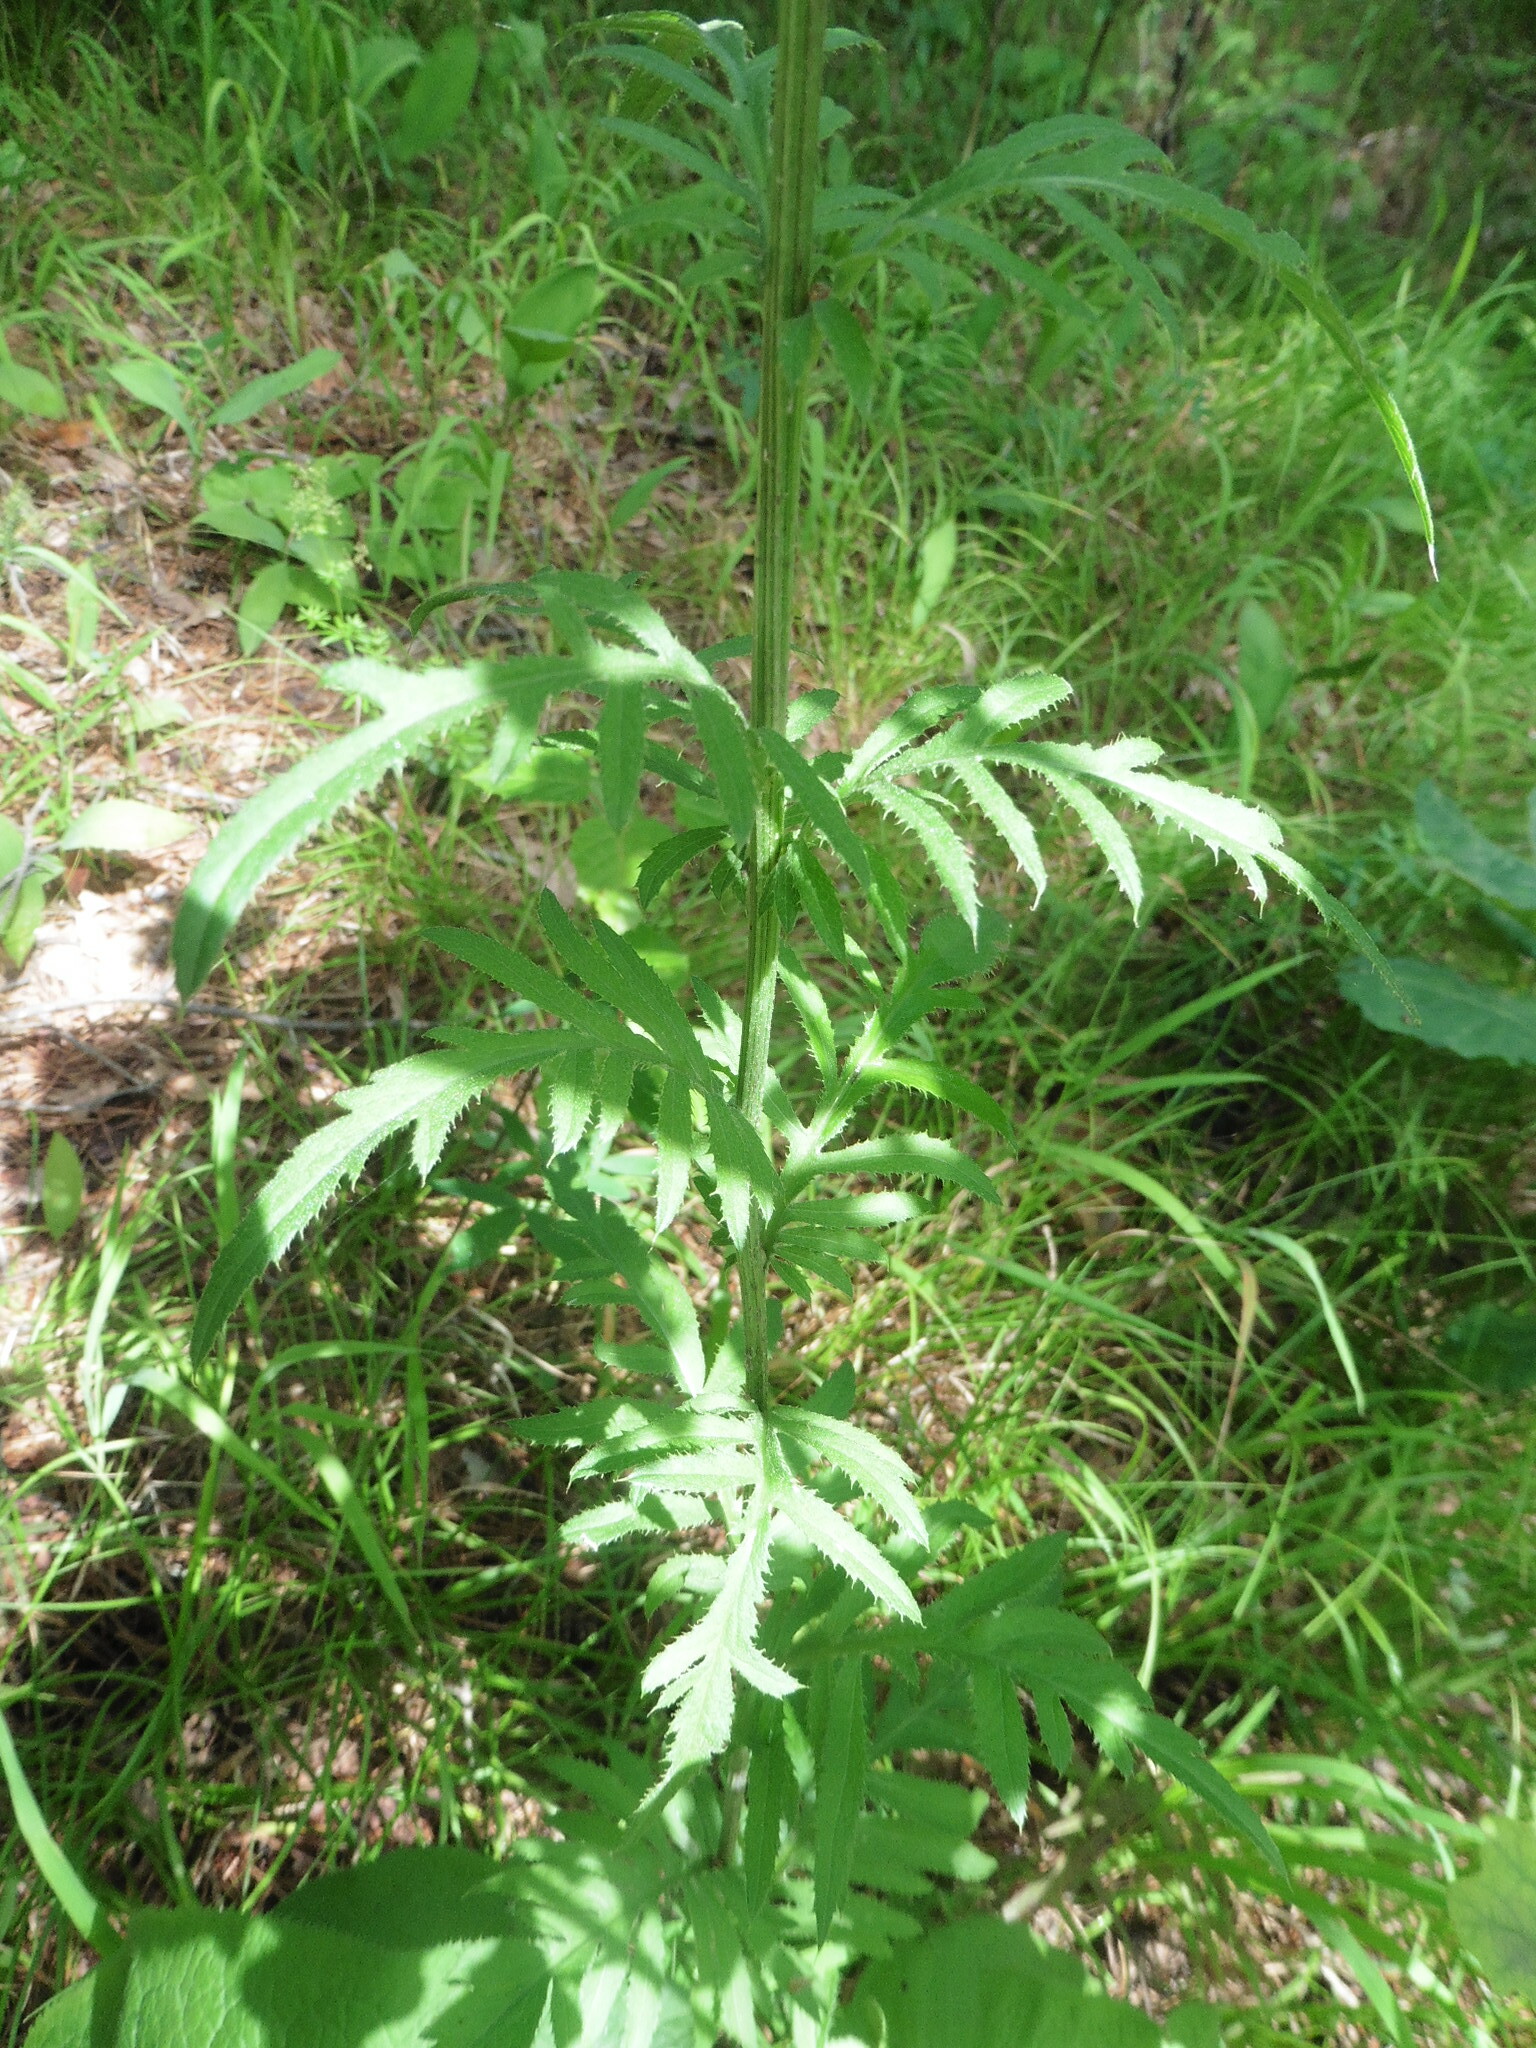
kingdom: Plantae
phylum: Tracheophyta
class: Magnoliopsida
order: Asterales
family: Asteraceae
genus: Serratula
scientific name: Serratula tinctoria
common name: Saw-wort
